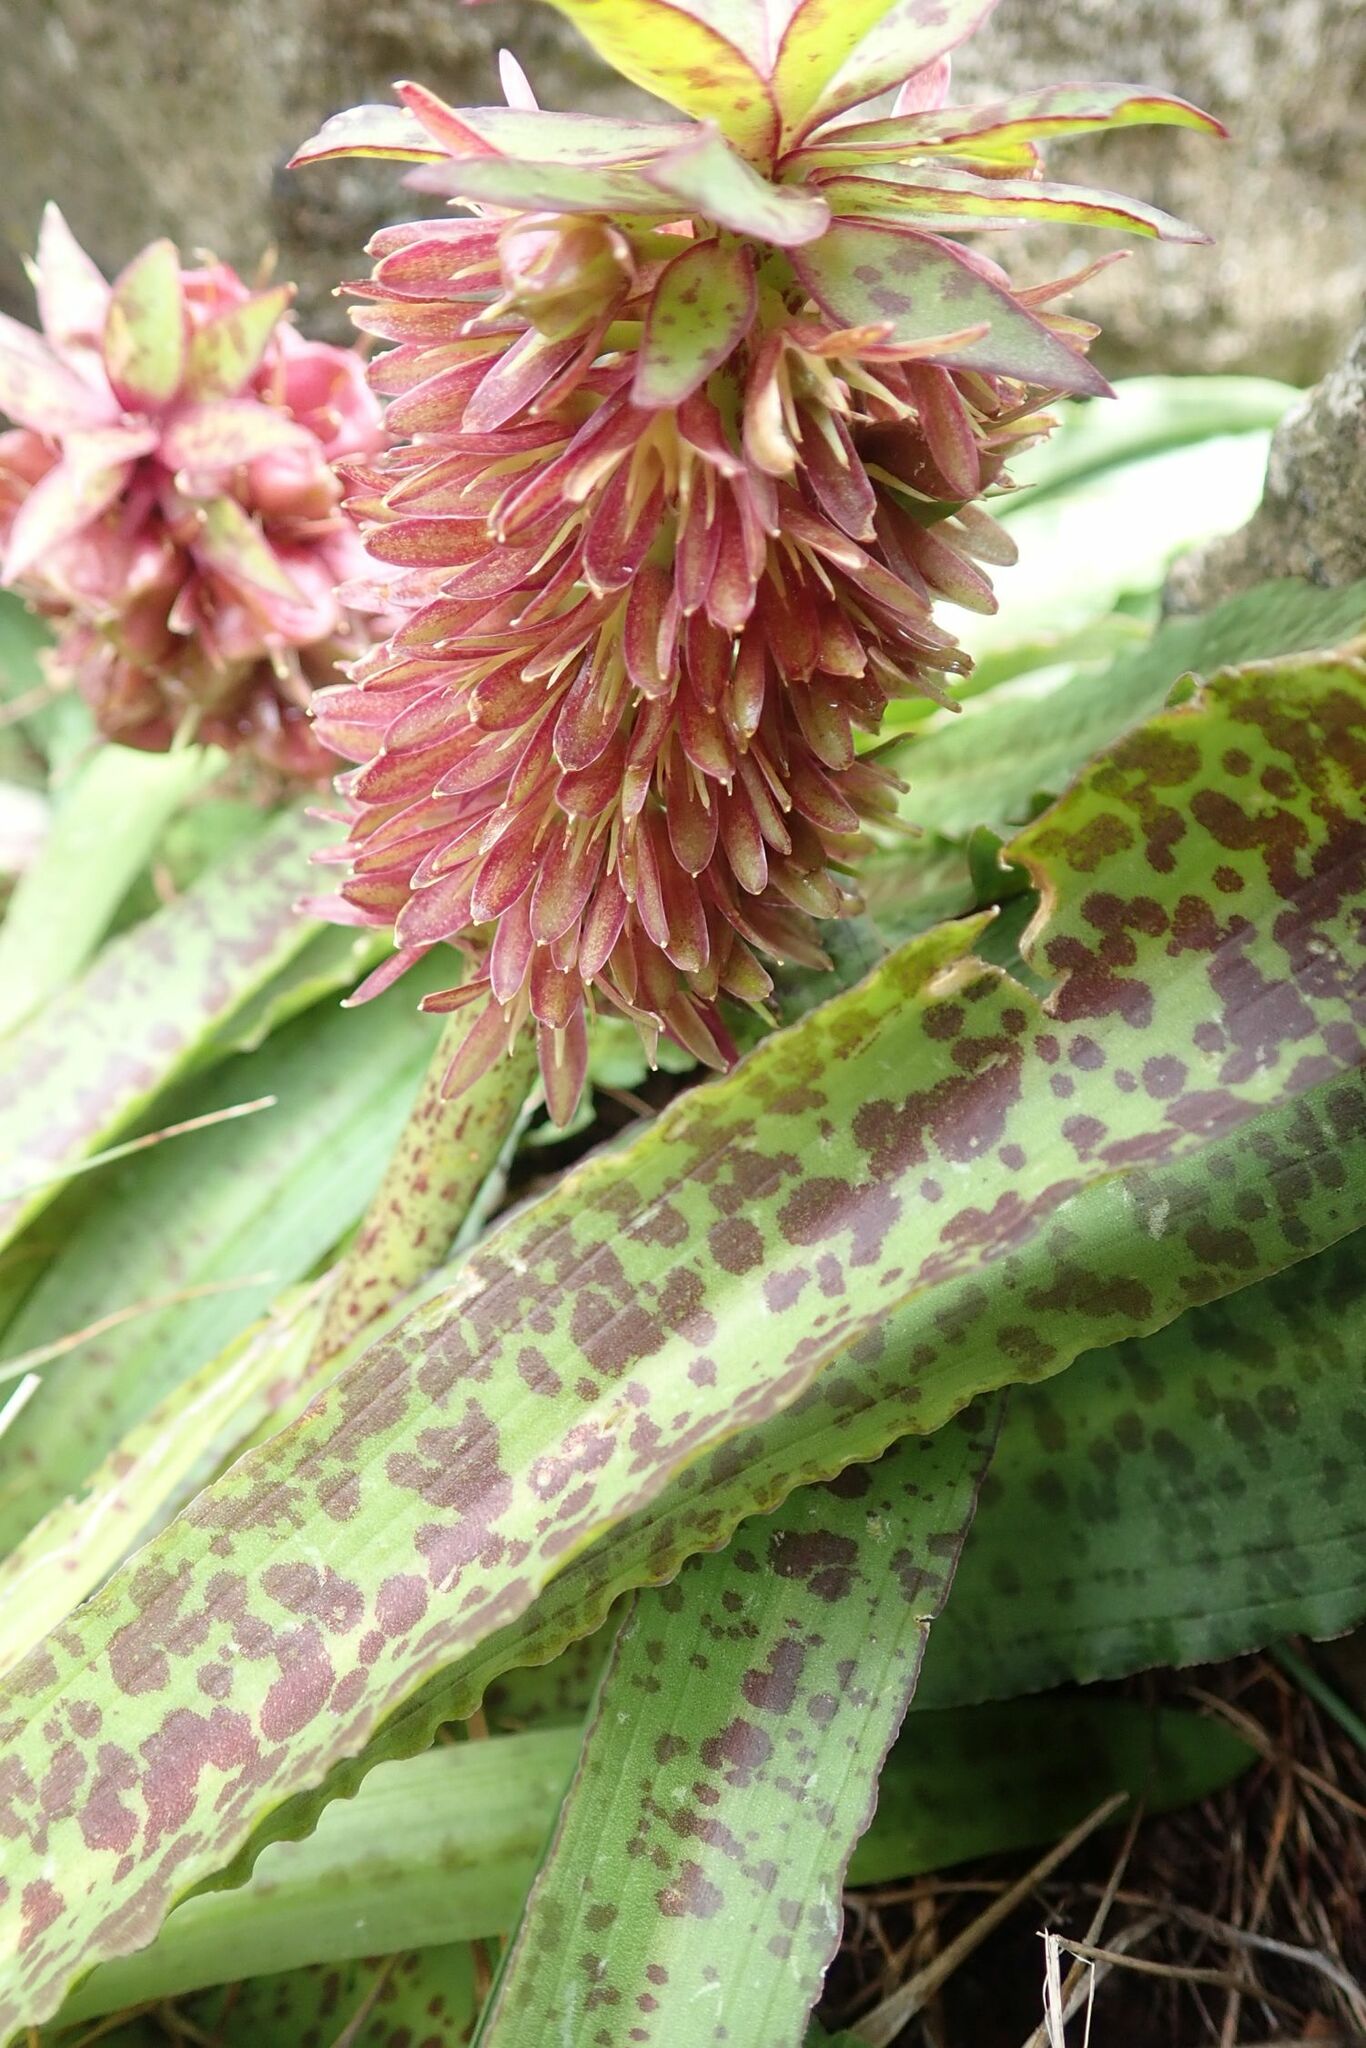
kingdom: Plantae
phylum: Tracheophyta
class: Liliopsida
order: Asparagales
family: Asparagaceae
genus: Eucomis
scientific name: Eucomis vandermerwei
